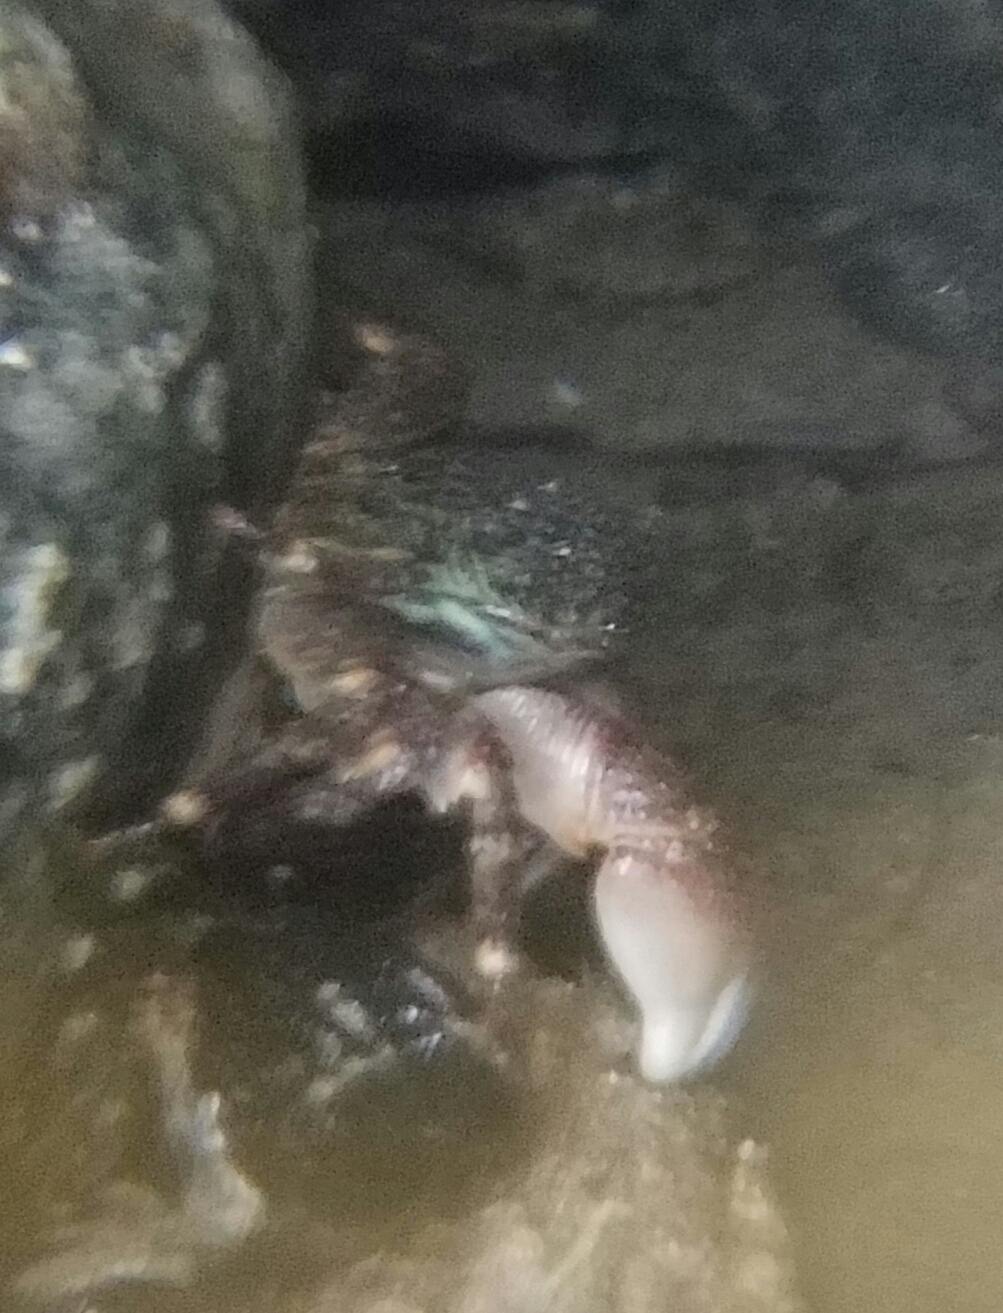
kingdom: Animalia
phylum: Arthropoda
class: Malacostraca
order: Decapoda
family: Grapsidae
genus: Pachygrapsus
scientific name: Pachygrapsus crassipes
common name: Striped shore crab
